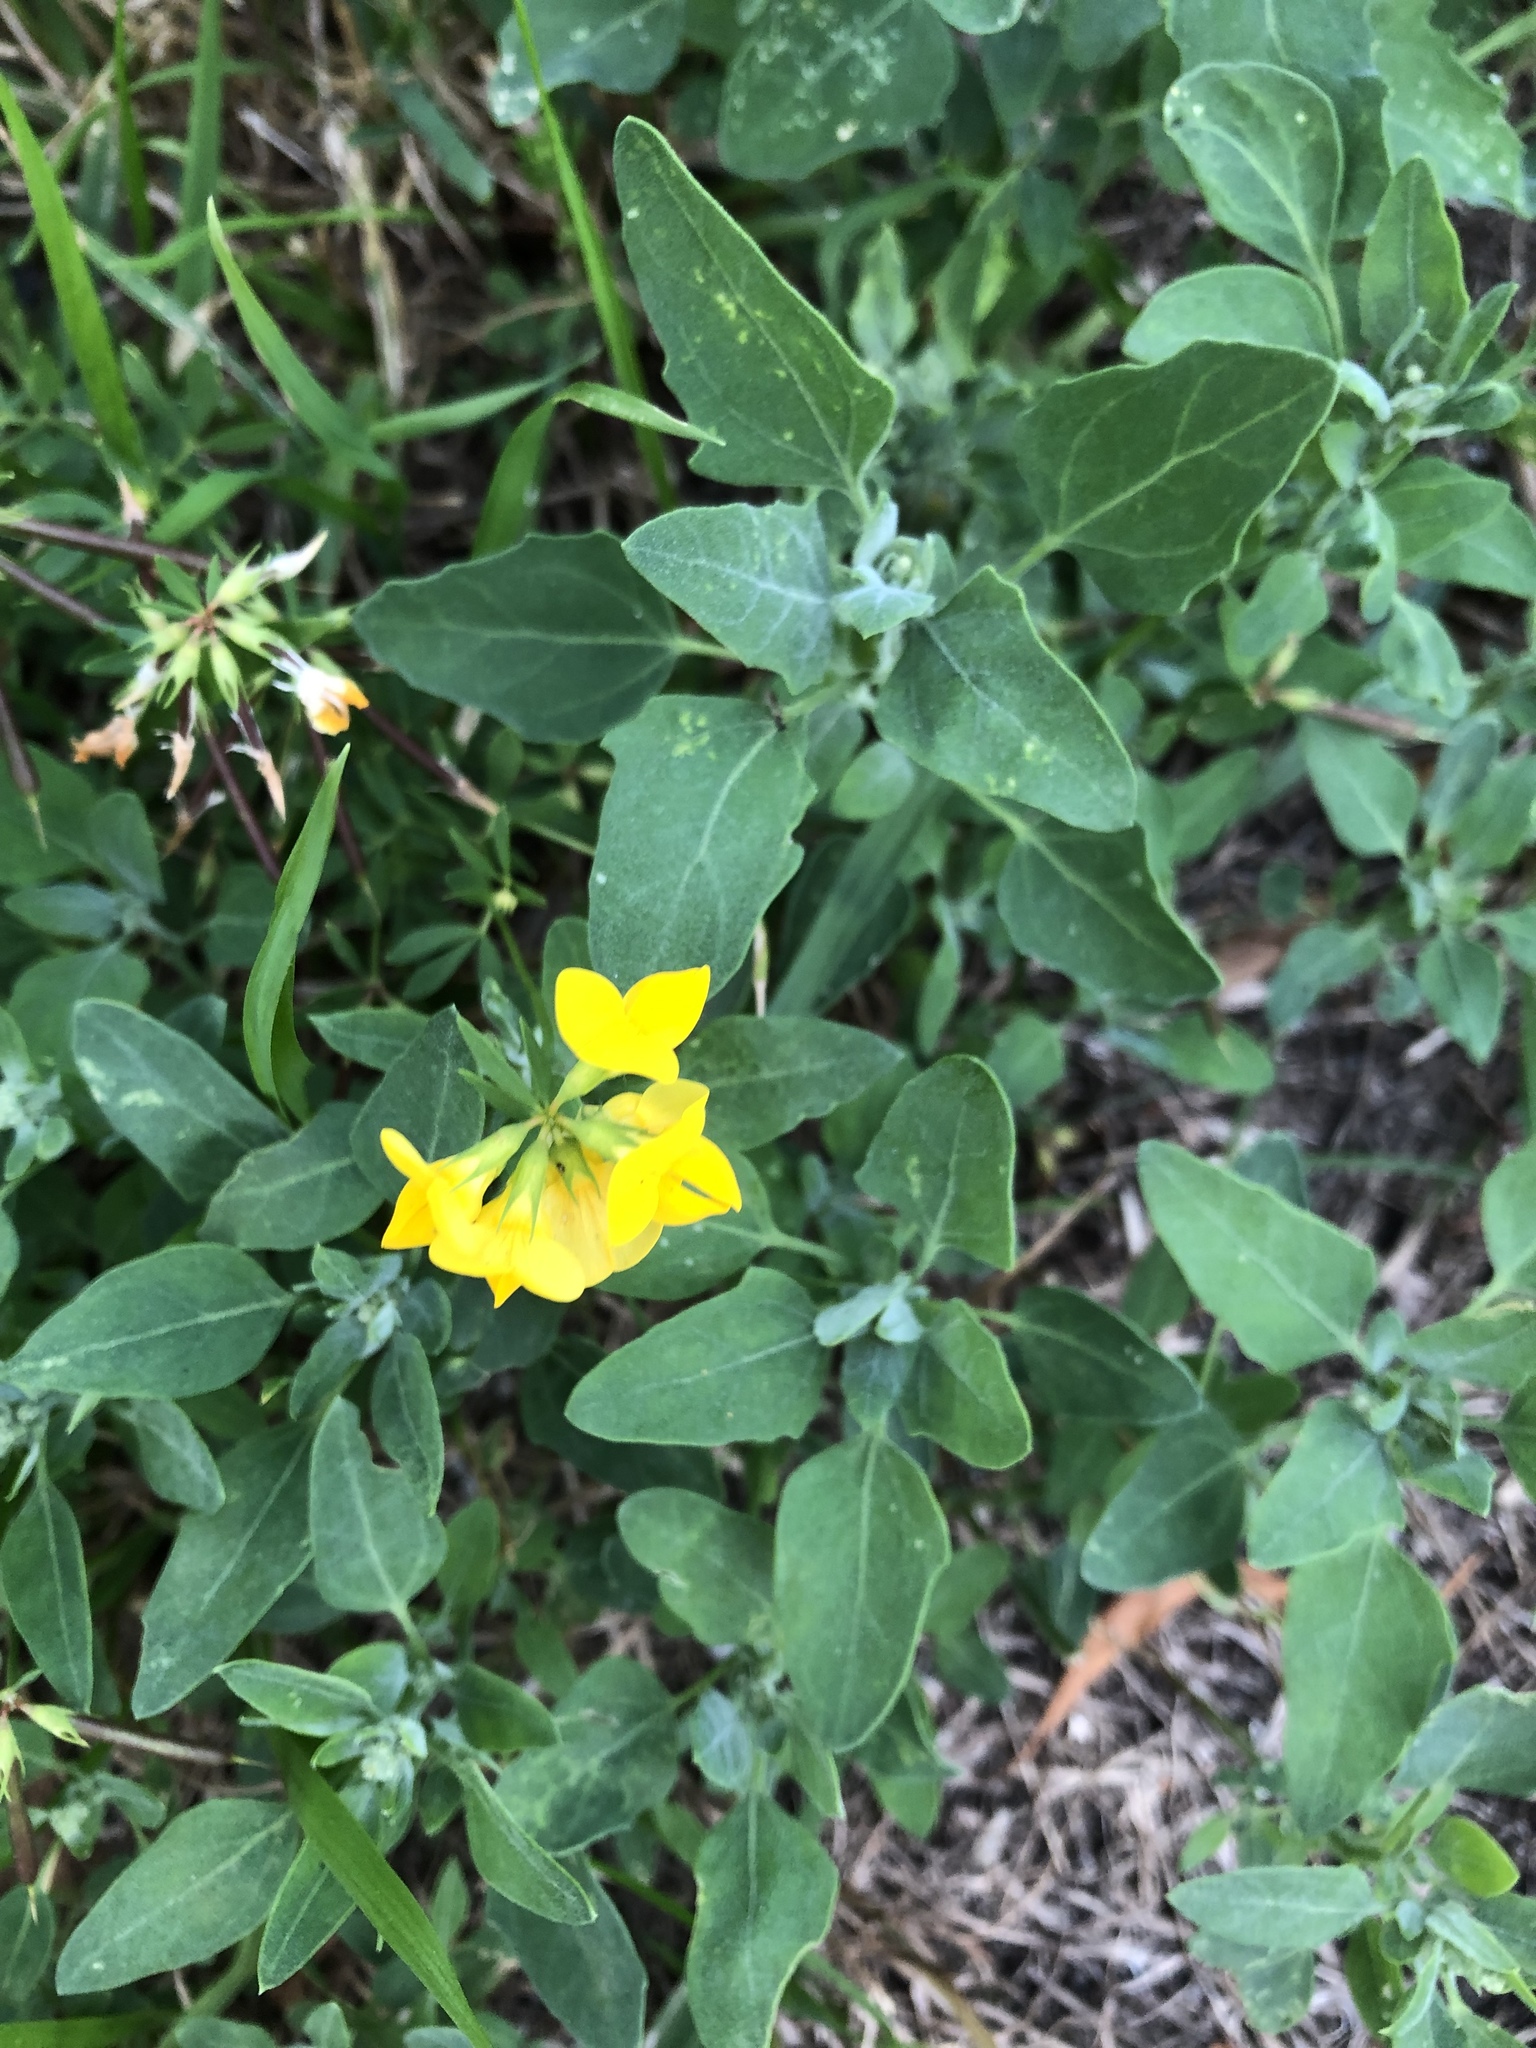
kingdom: Plantae
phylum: Tracheophyta
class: Magnoliopsida
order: Fabales
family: Fabaceae
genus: Lotus
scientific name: Lotus corniculatus
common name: Common bird's-foot-trefoil
